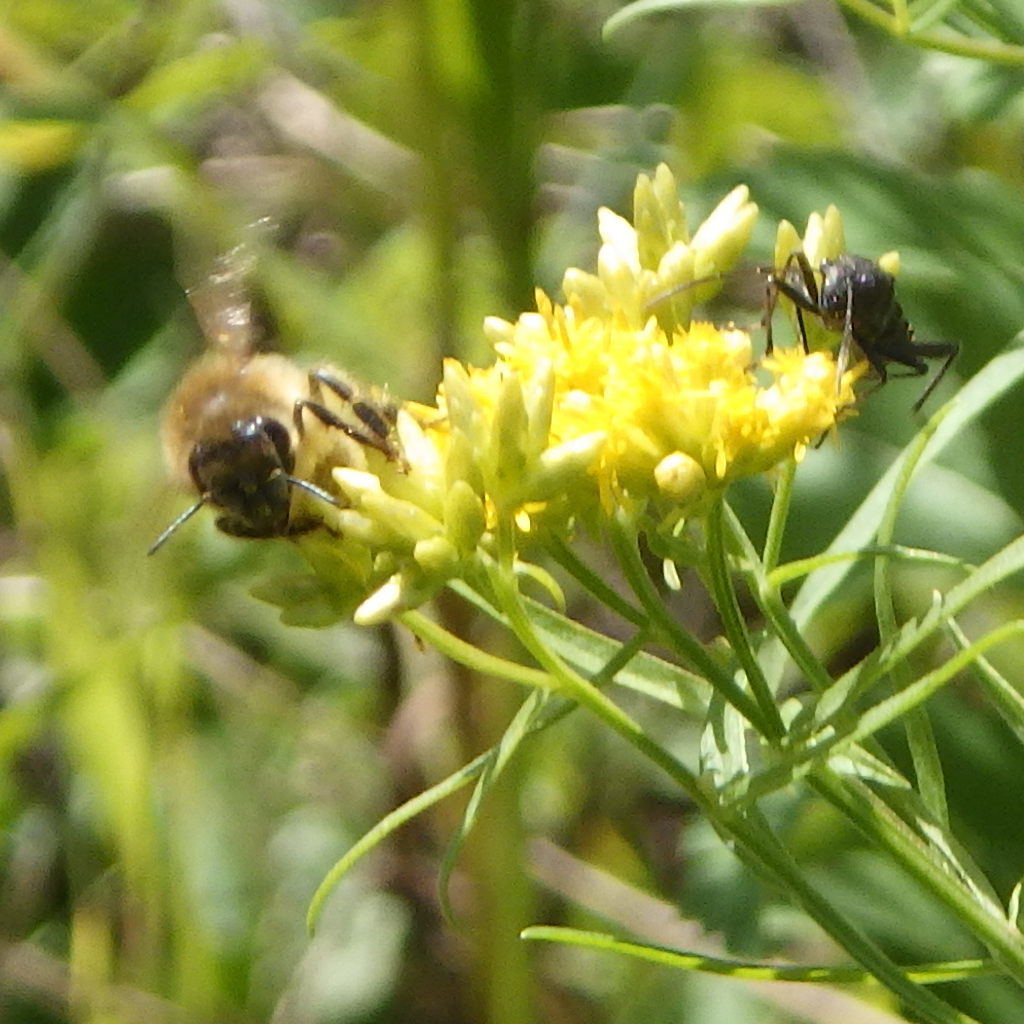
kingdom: Animalia
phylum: Arthropoda
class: Insecta
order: Hymenoptera
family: Apidae
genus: Apis
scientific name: Apis mellifera
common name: Honey bee
